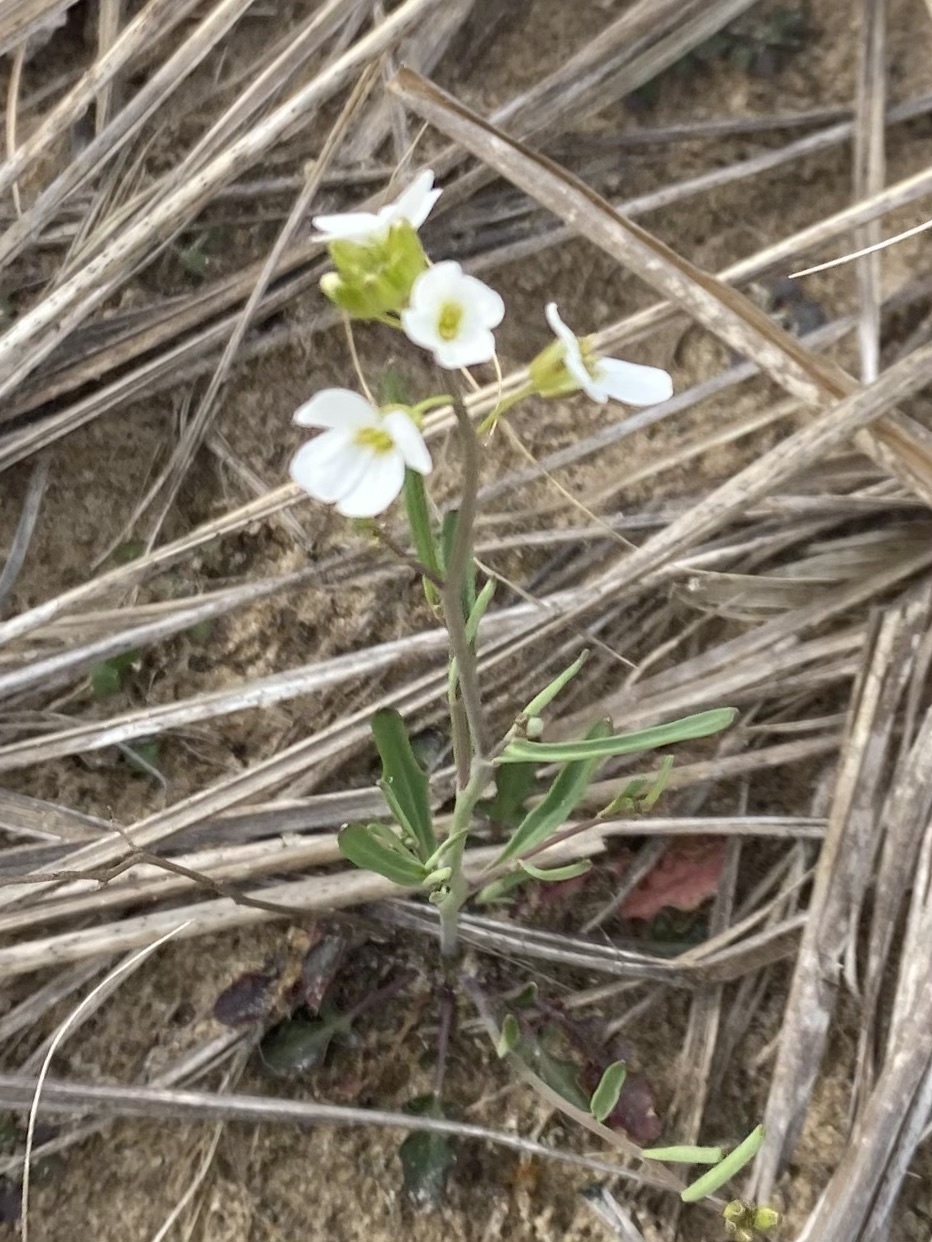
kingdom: Plantae
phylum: Tracheophyta
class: Magnoliopsida
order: Brassicales
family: Brassicaceae
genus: Arabidopsis
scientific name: Arabidopsis lyrata
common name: Lyrate rockcress
